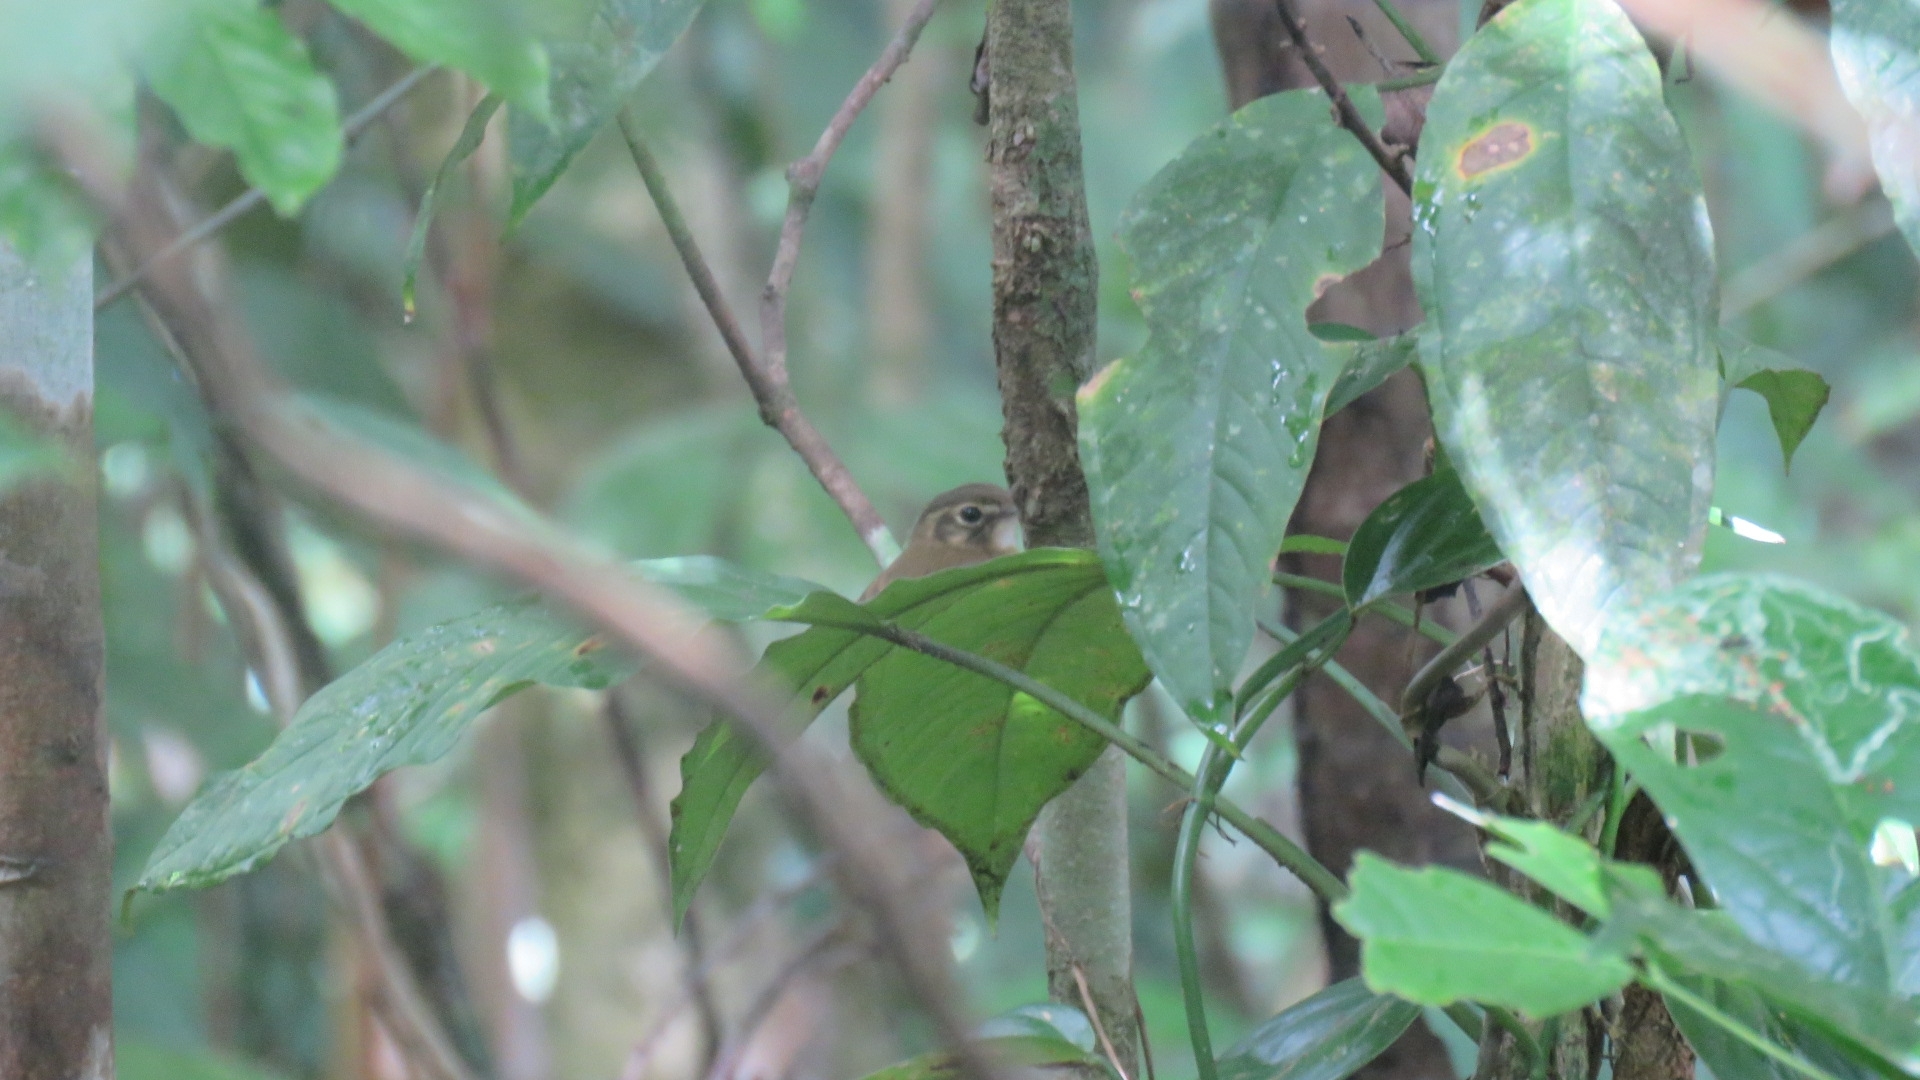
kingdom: Animalia
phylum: Chordata
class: Aves
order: Passeriformes
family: Tyrannidae
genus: Platyrinchus
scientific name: Platyrinchus cancrominus
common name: Stub-tailed spadebill
